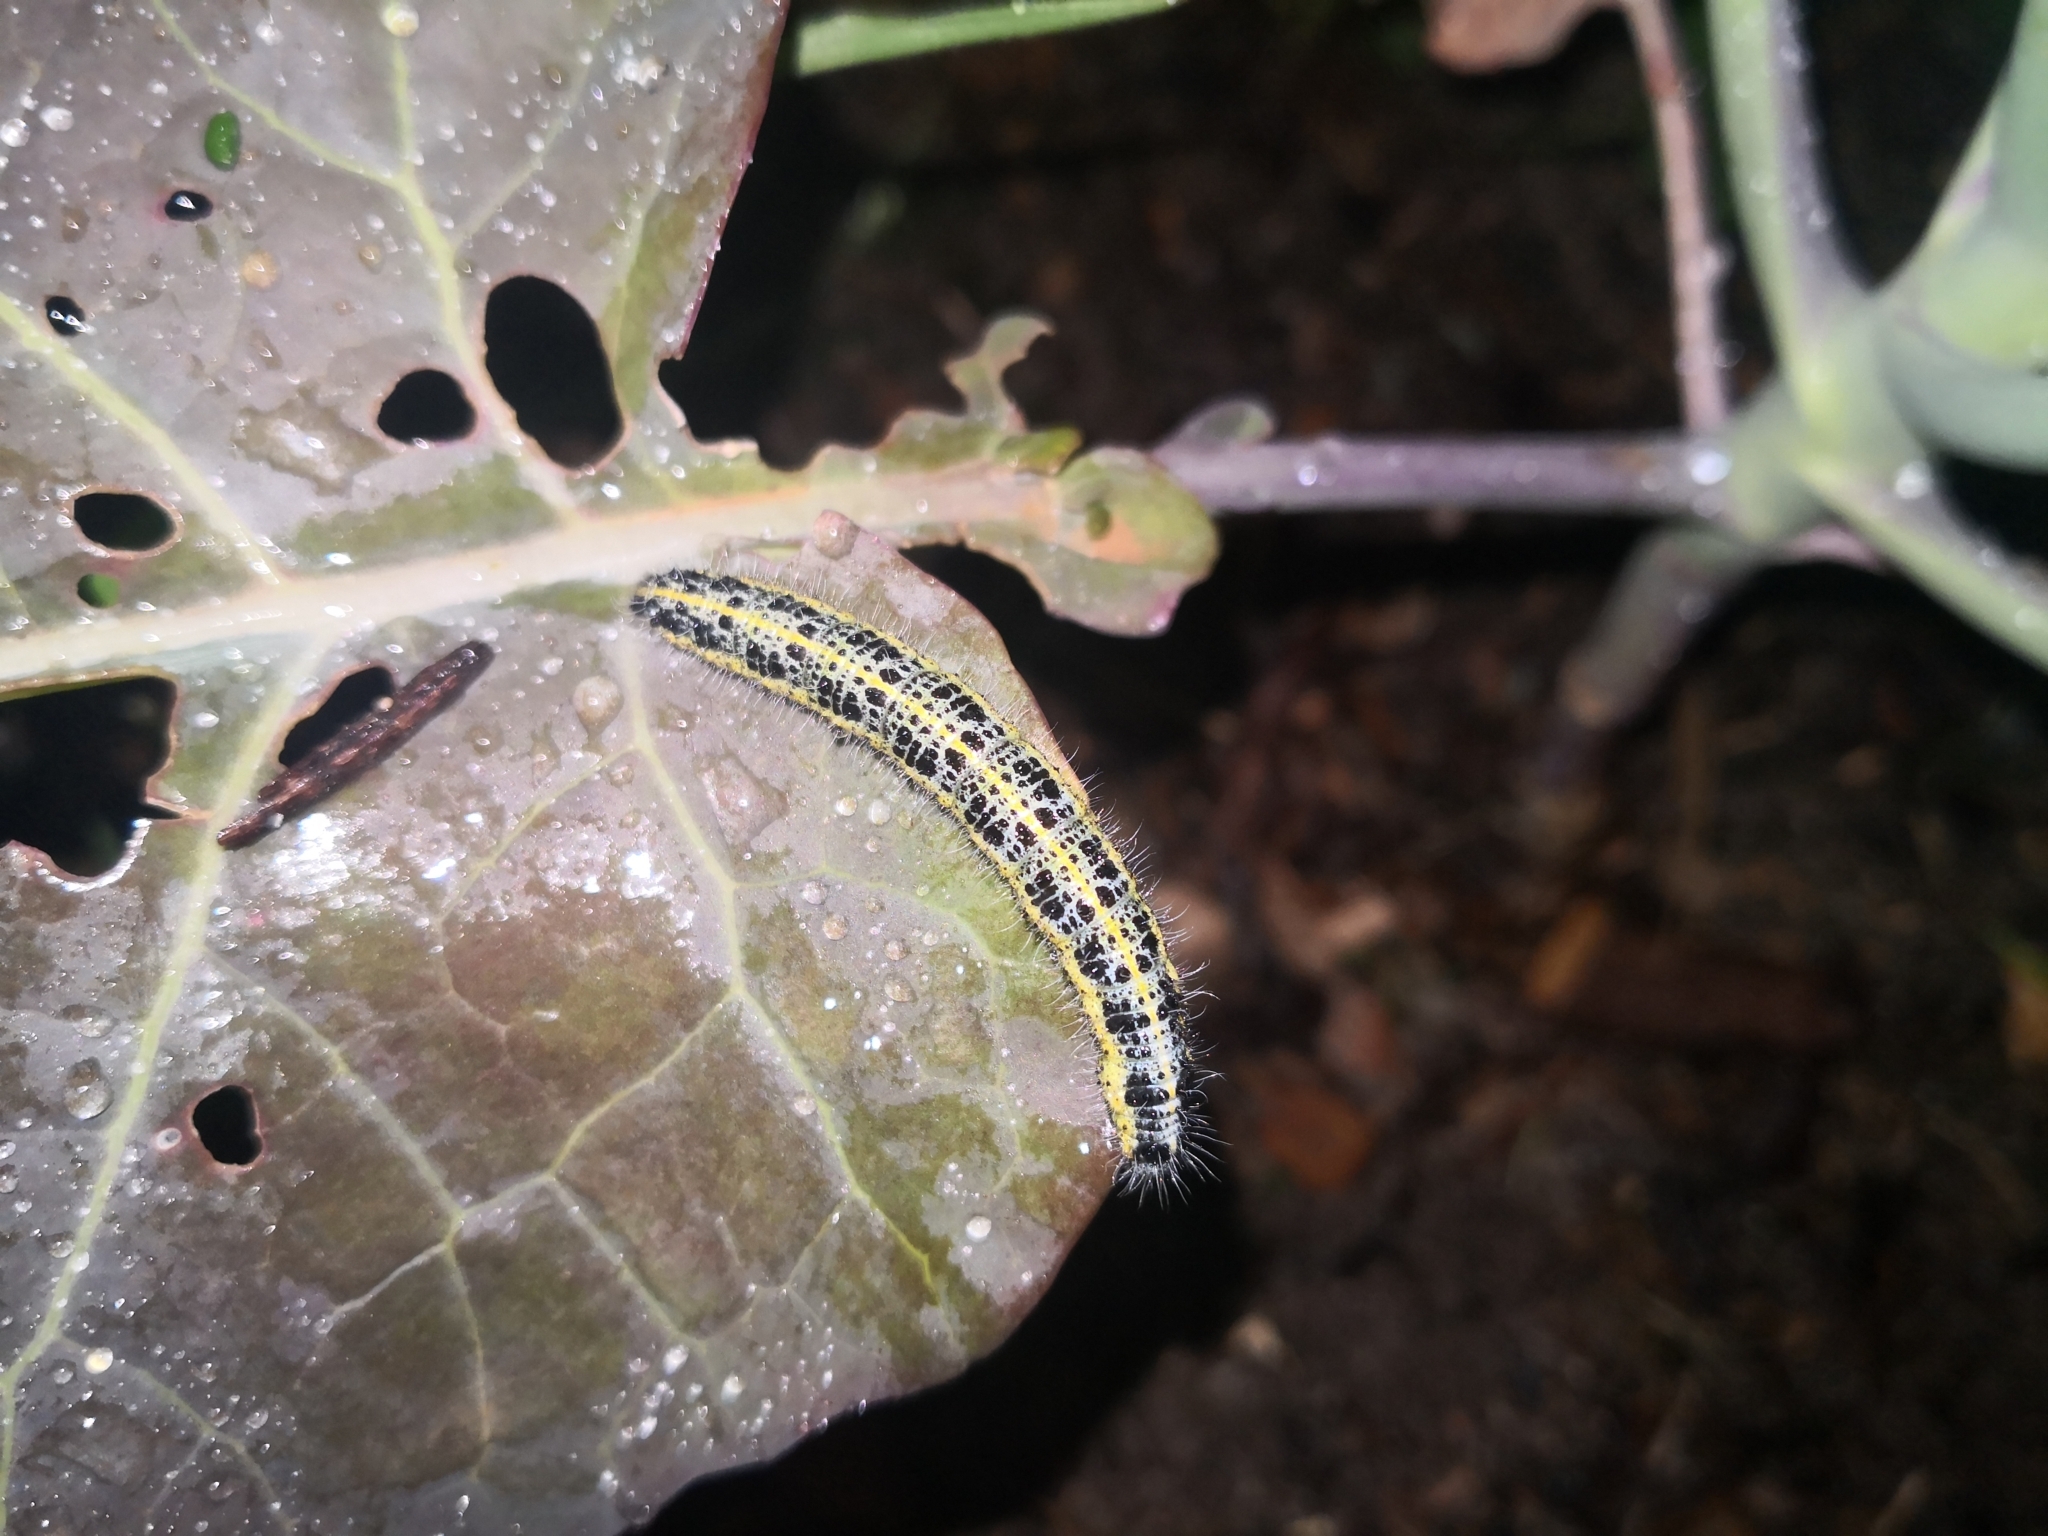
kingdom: Animalia
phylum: Arthropoda
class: Insecta
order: Lepidoptera
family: Pieridae
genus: Pieris
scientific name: Pieris brassicae
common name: Large white
